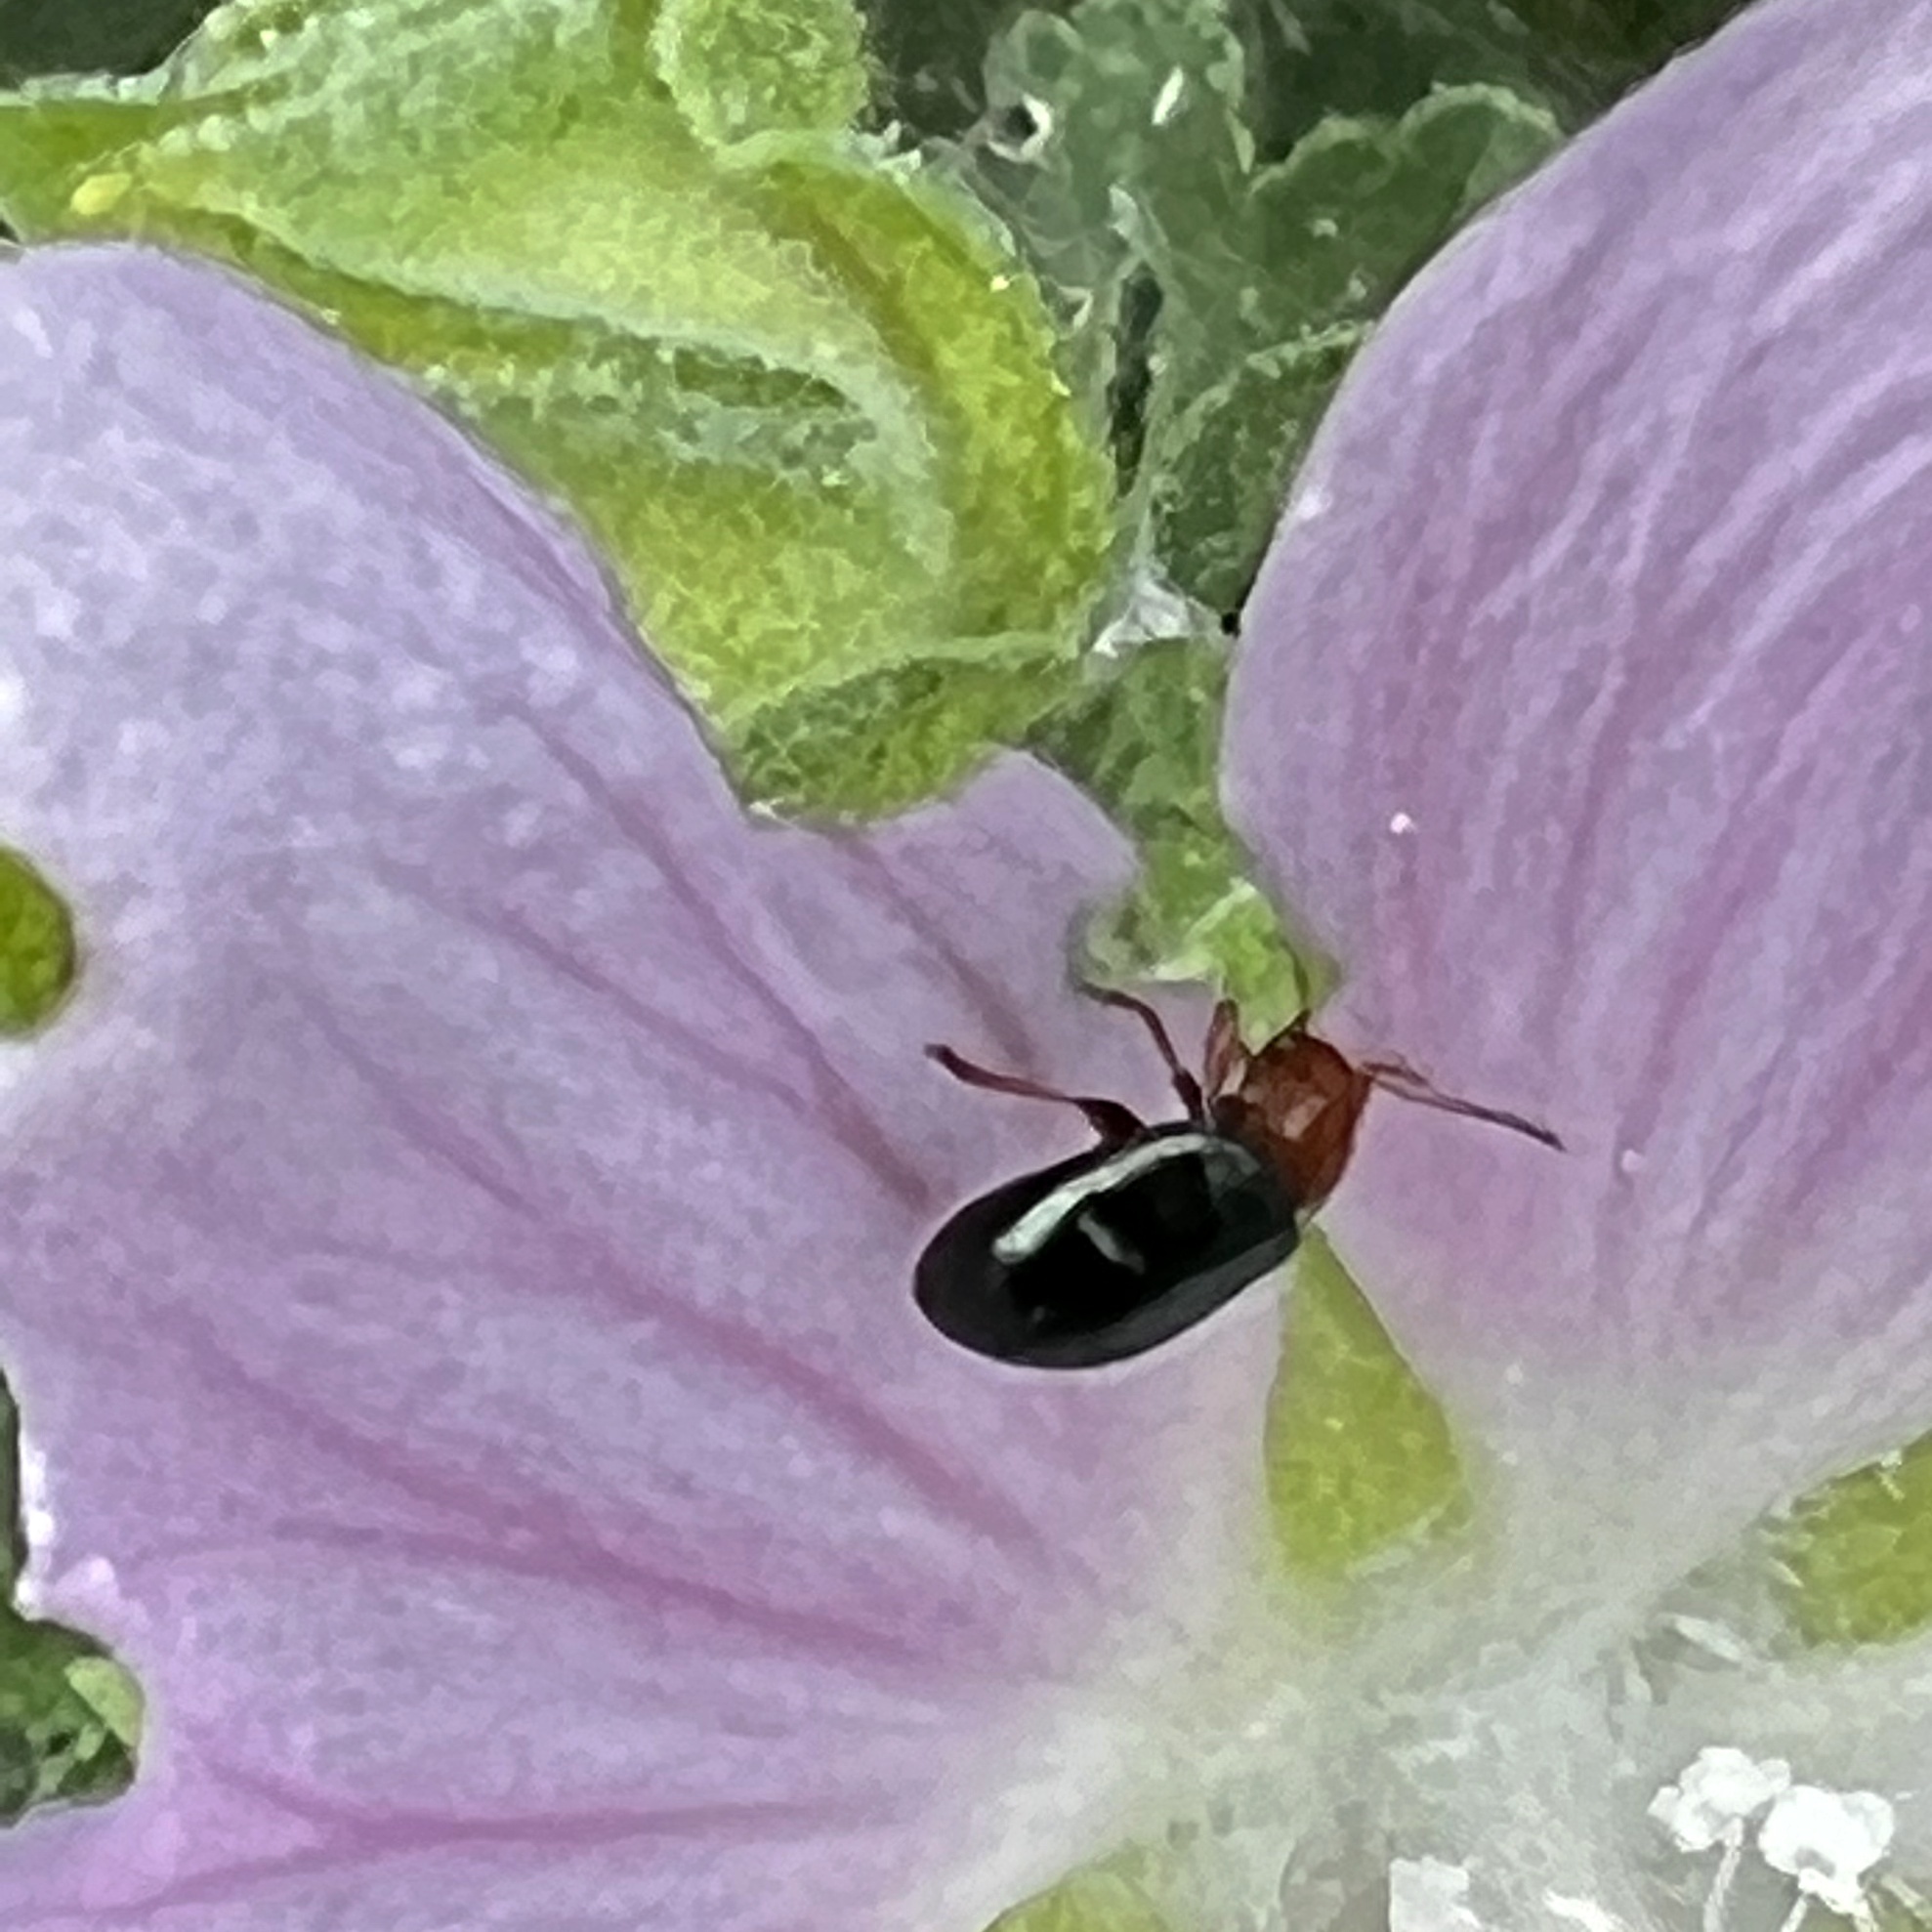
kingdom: Animalia
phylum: Arthropoda
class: Insecta
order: Coleoptera
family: Chrysomelidae
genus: Podagrica
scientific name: Podagrica fuscicornis
